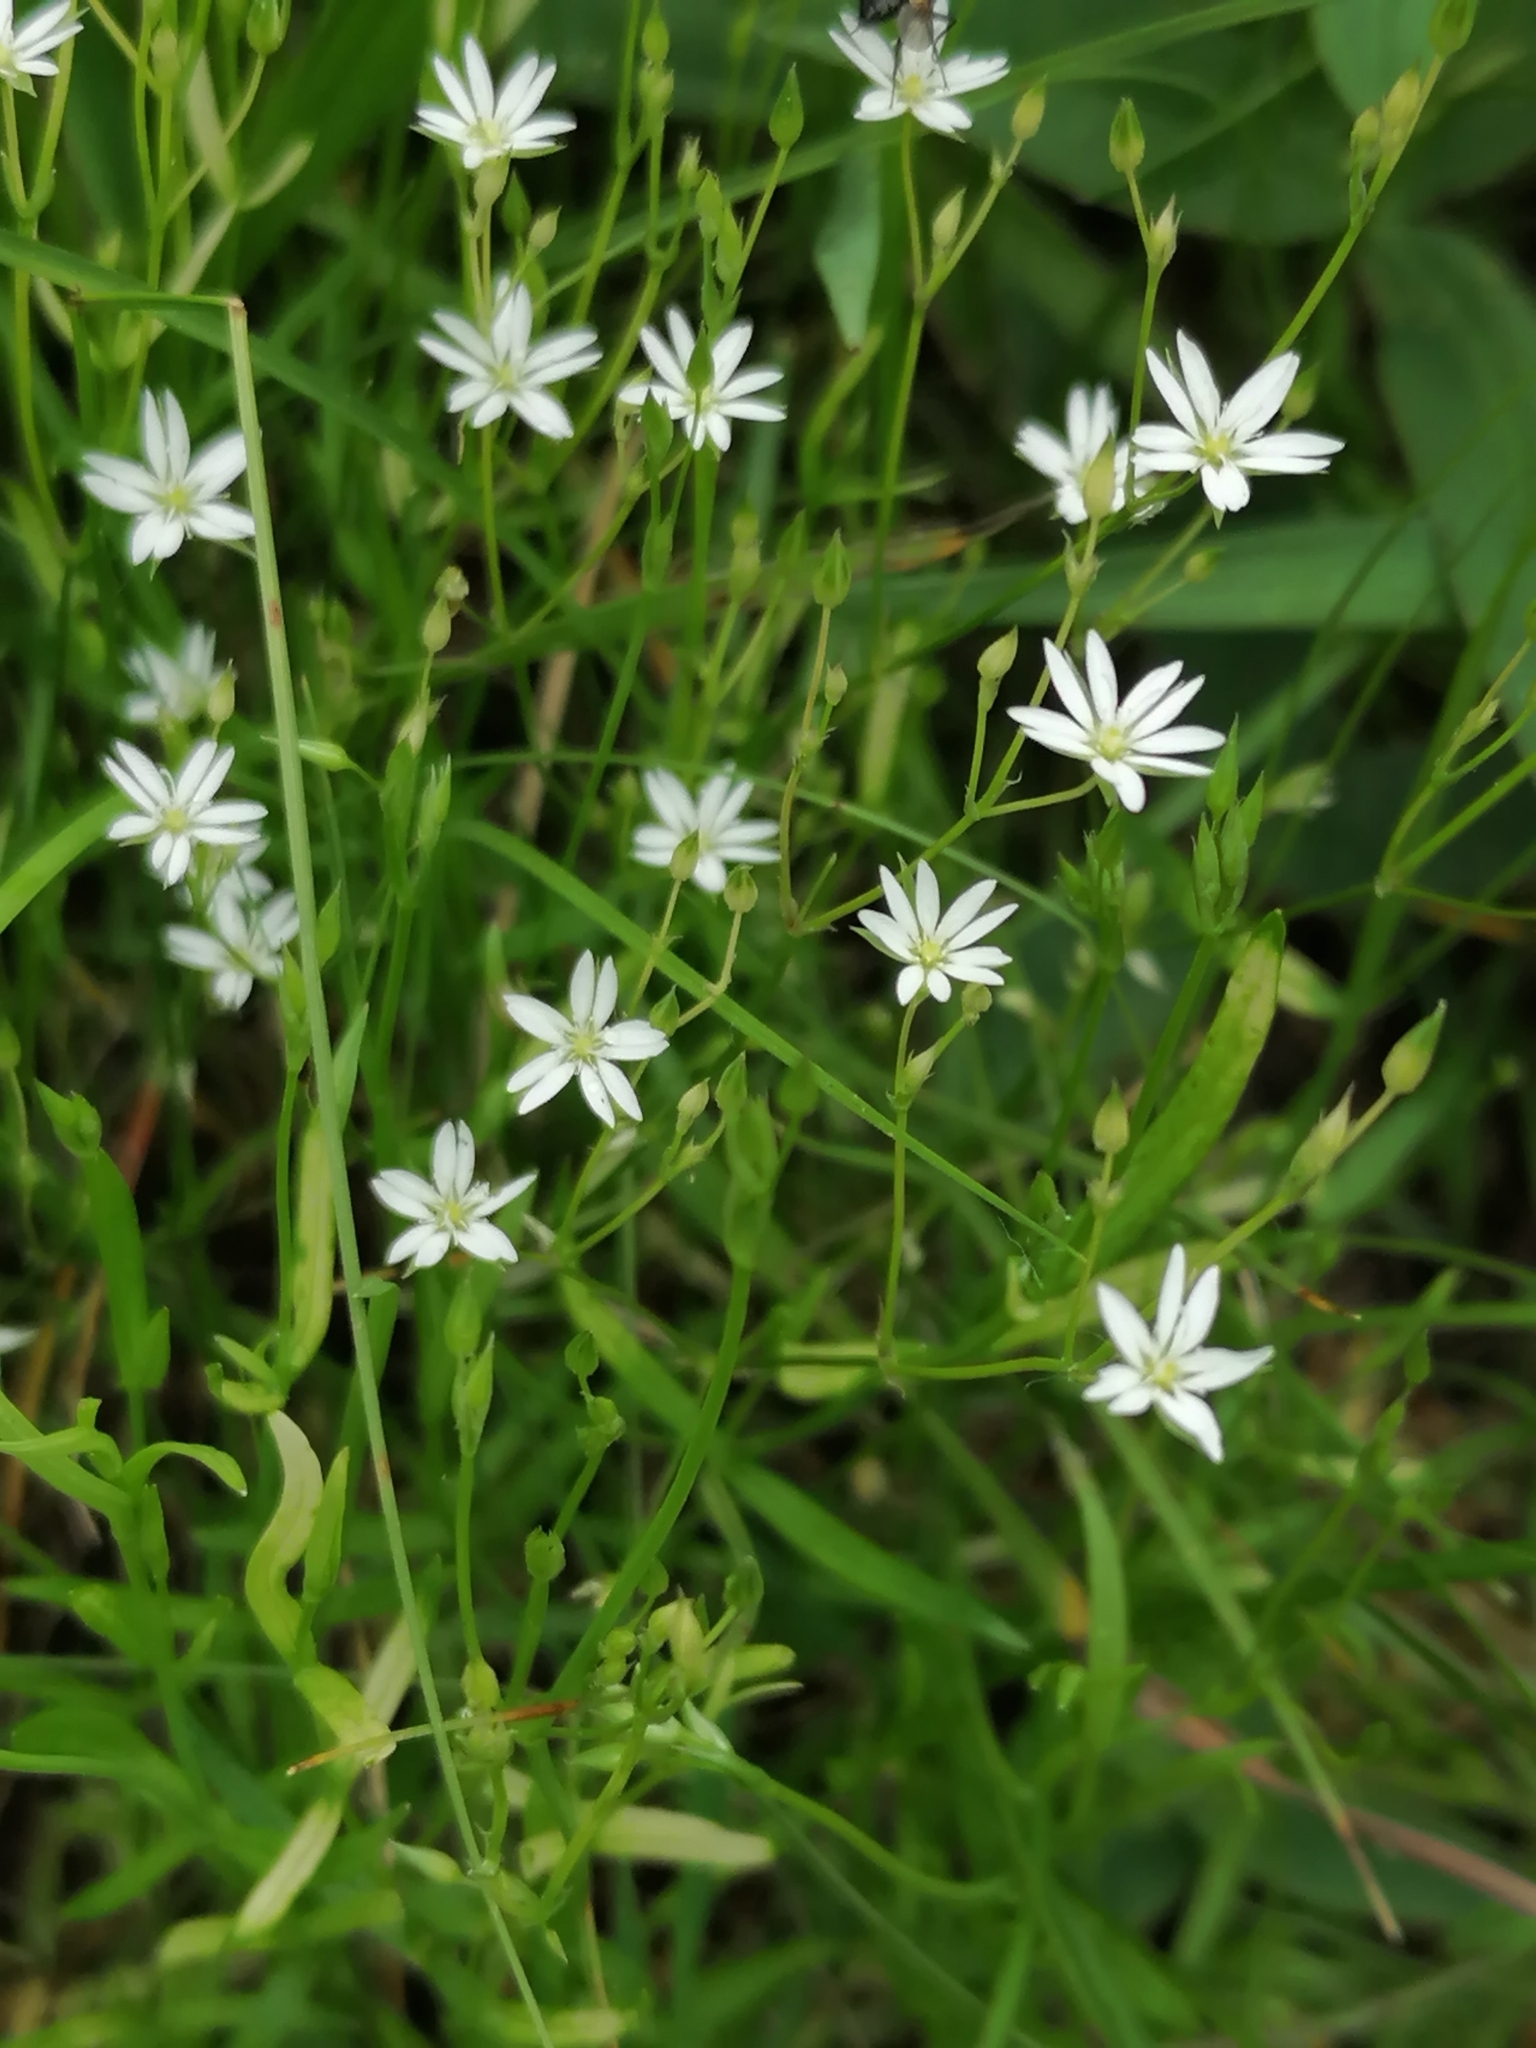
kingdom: Plantae
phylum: Tracheophyta
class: Magnoliopsida
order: Caryophyllales
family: Caryophyllaceae
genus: Stellaria
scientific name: Stellaria graminea
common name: Grass-like starwort
